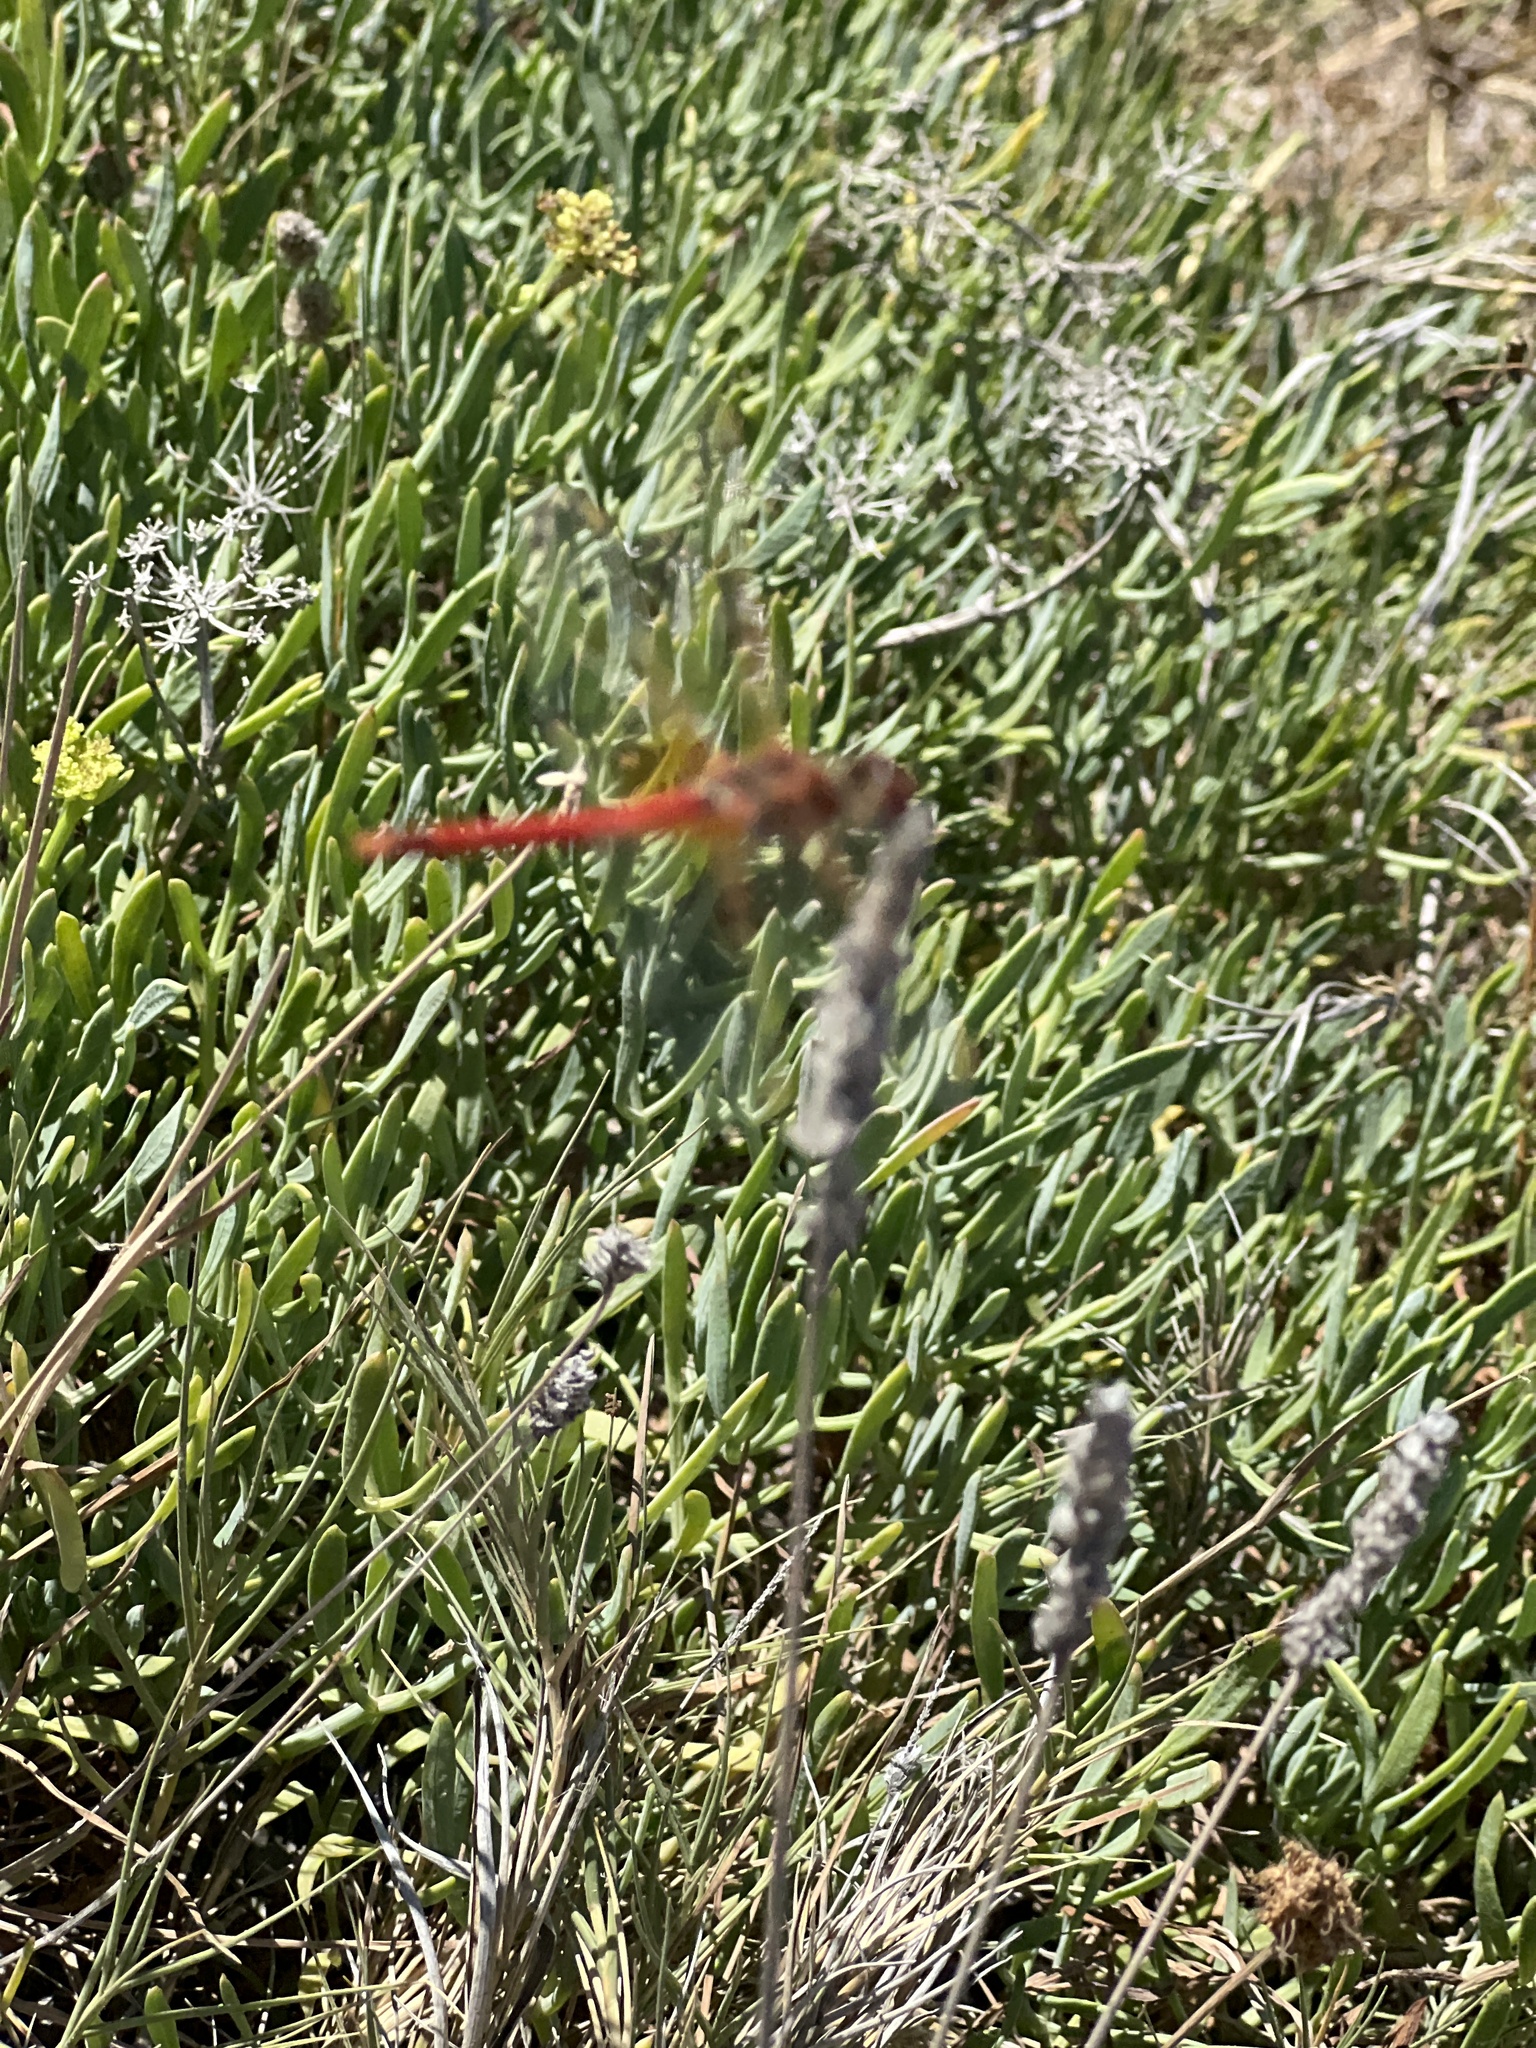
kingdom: Animalia
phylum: Arthropoda
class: Insecta
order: Odonata
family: Libellulidae
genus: Sympetrum
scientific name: Sympetrum fonscolombii
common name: Red-veined darter
